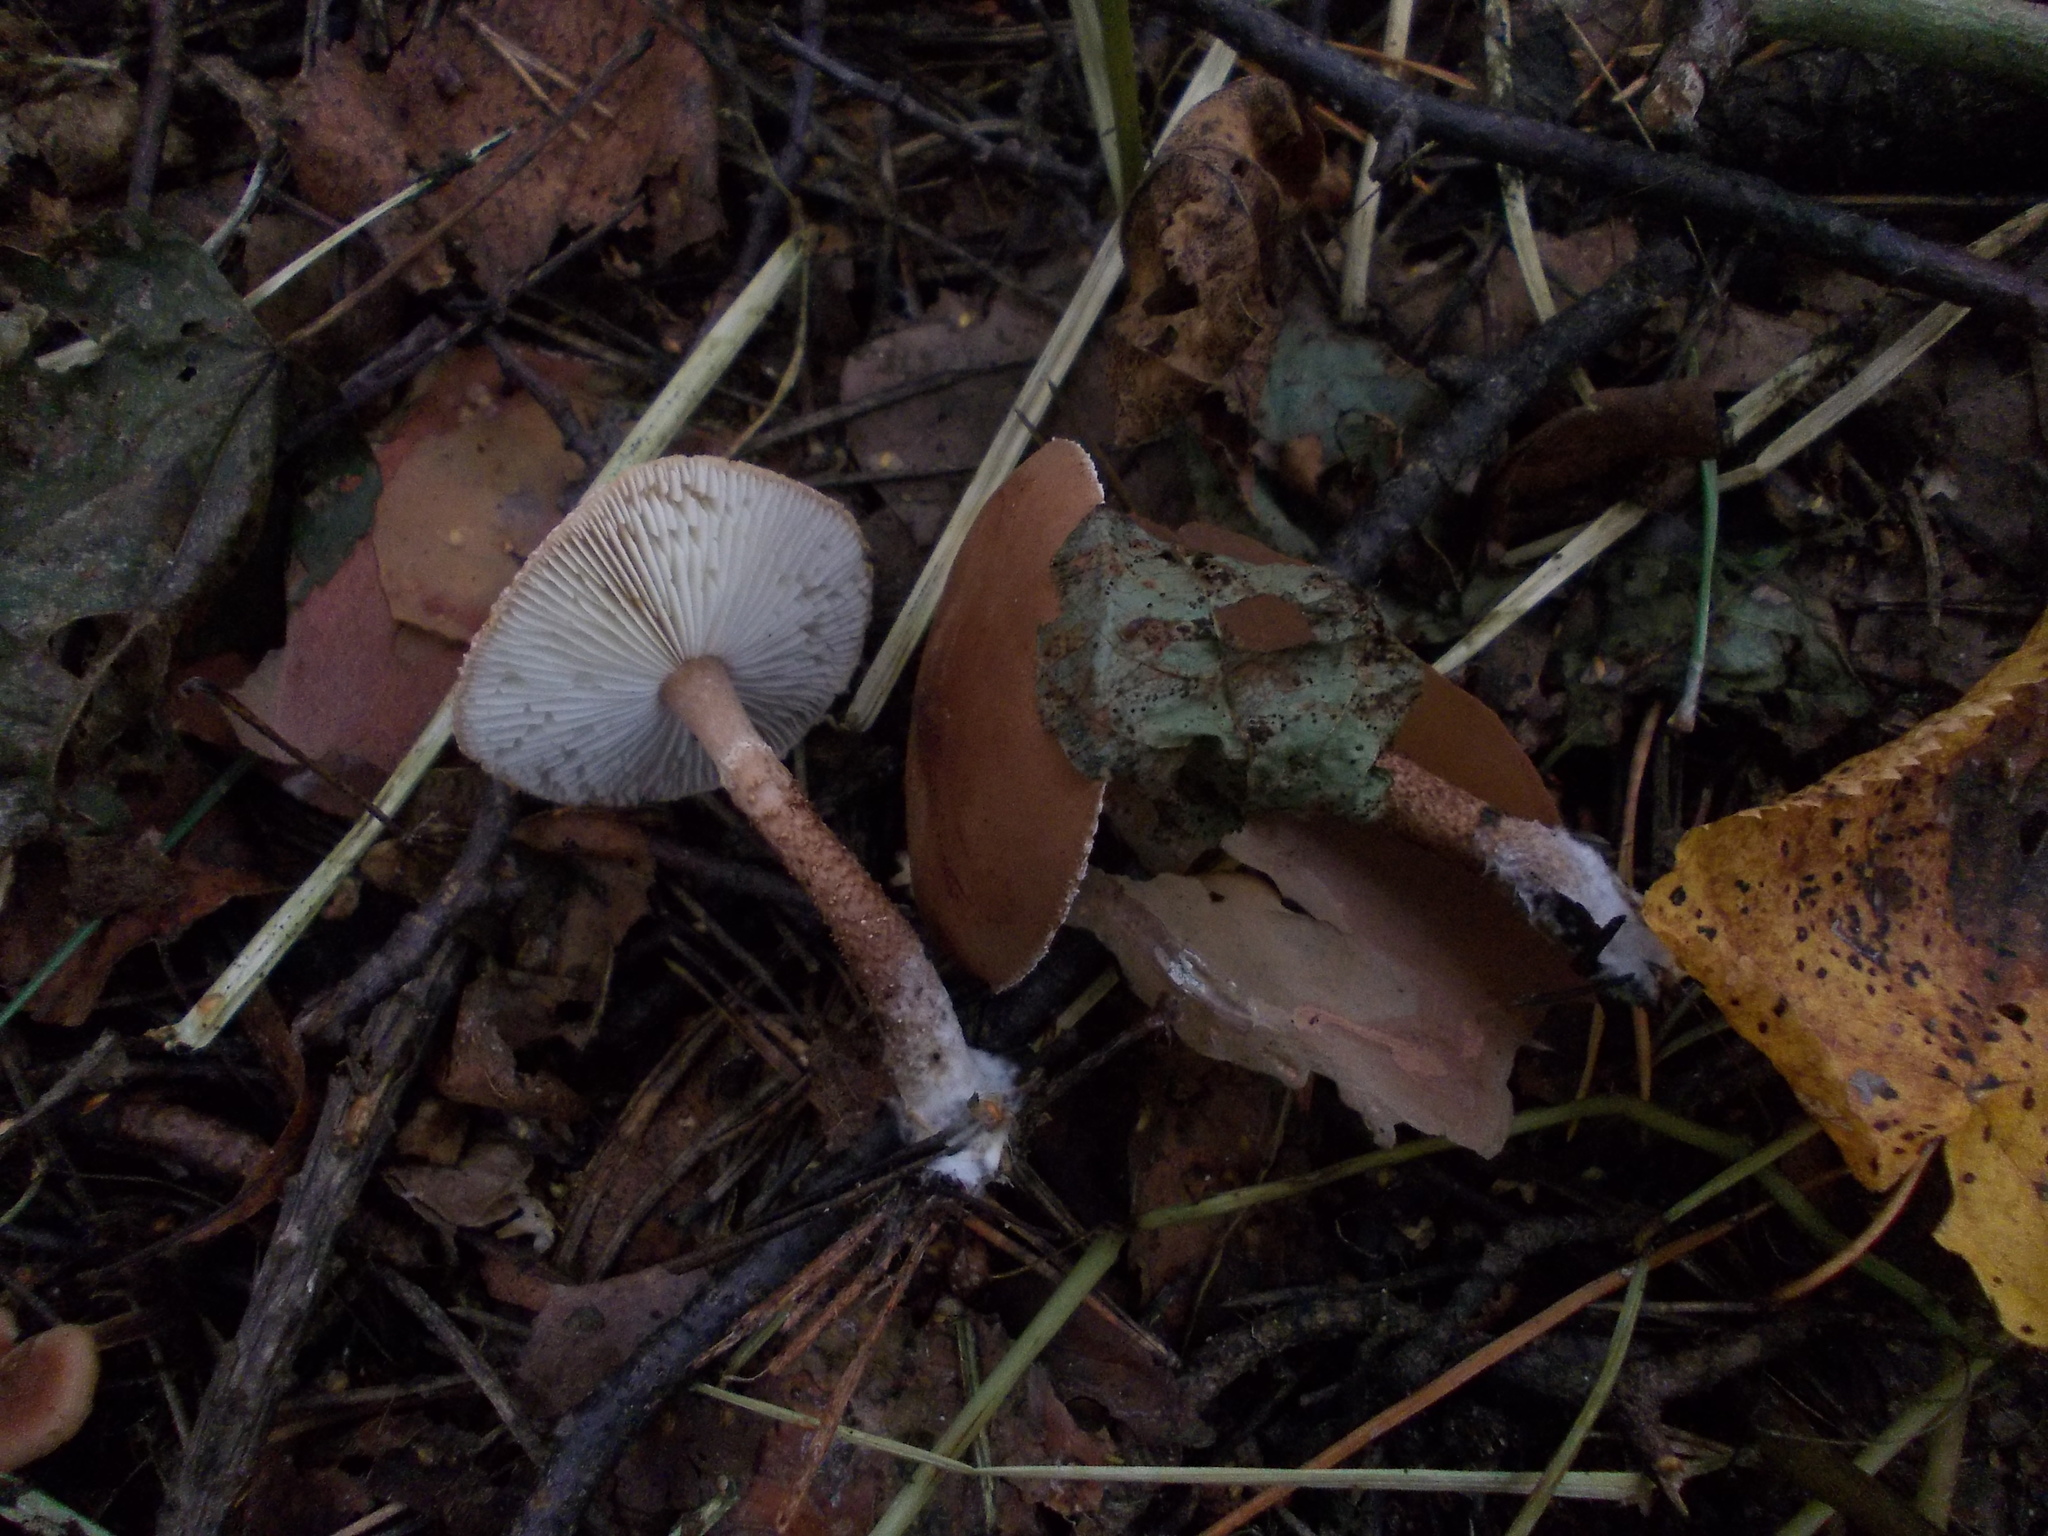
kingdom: Fungi
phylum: Basidiomycota
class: Agaricomycetes
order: Agaricales
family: Agaricaceae
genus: Cystodermella
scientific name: Cystodermella cinnabarina
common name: Cinnabar powdercap
